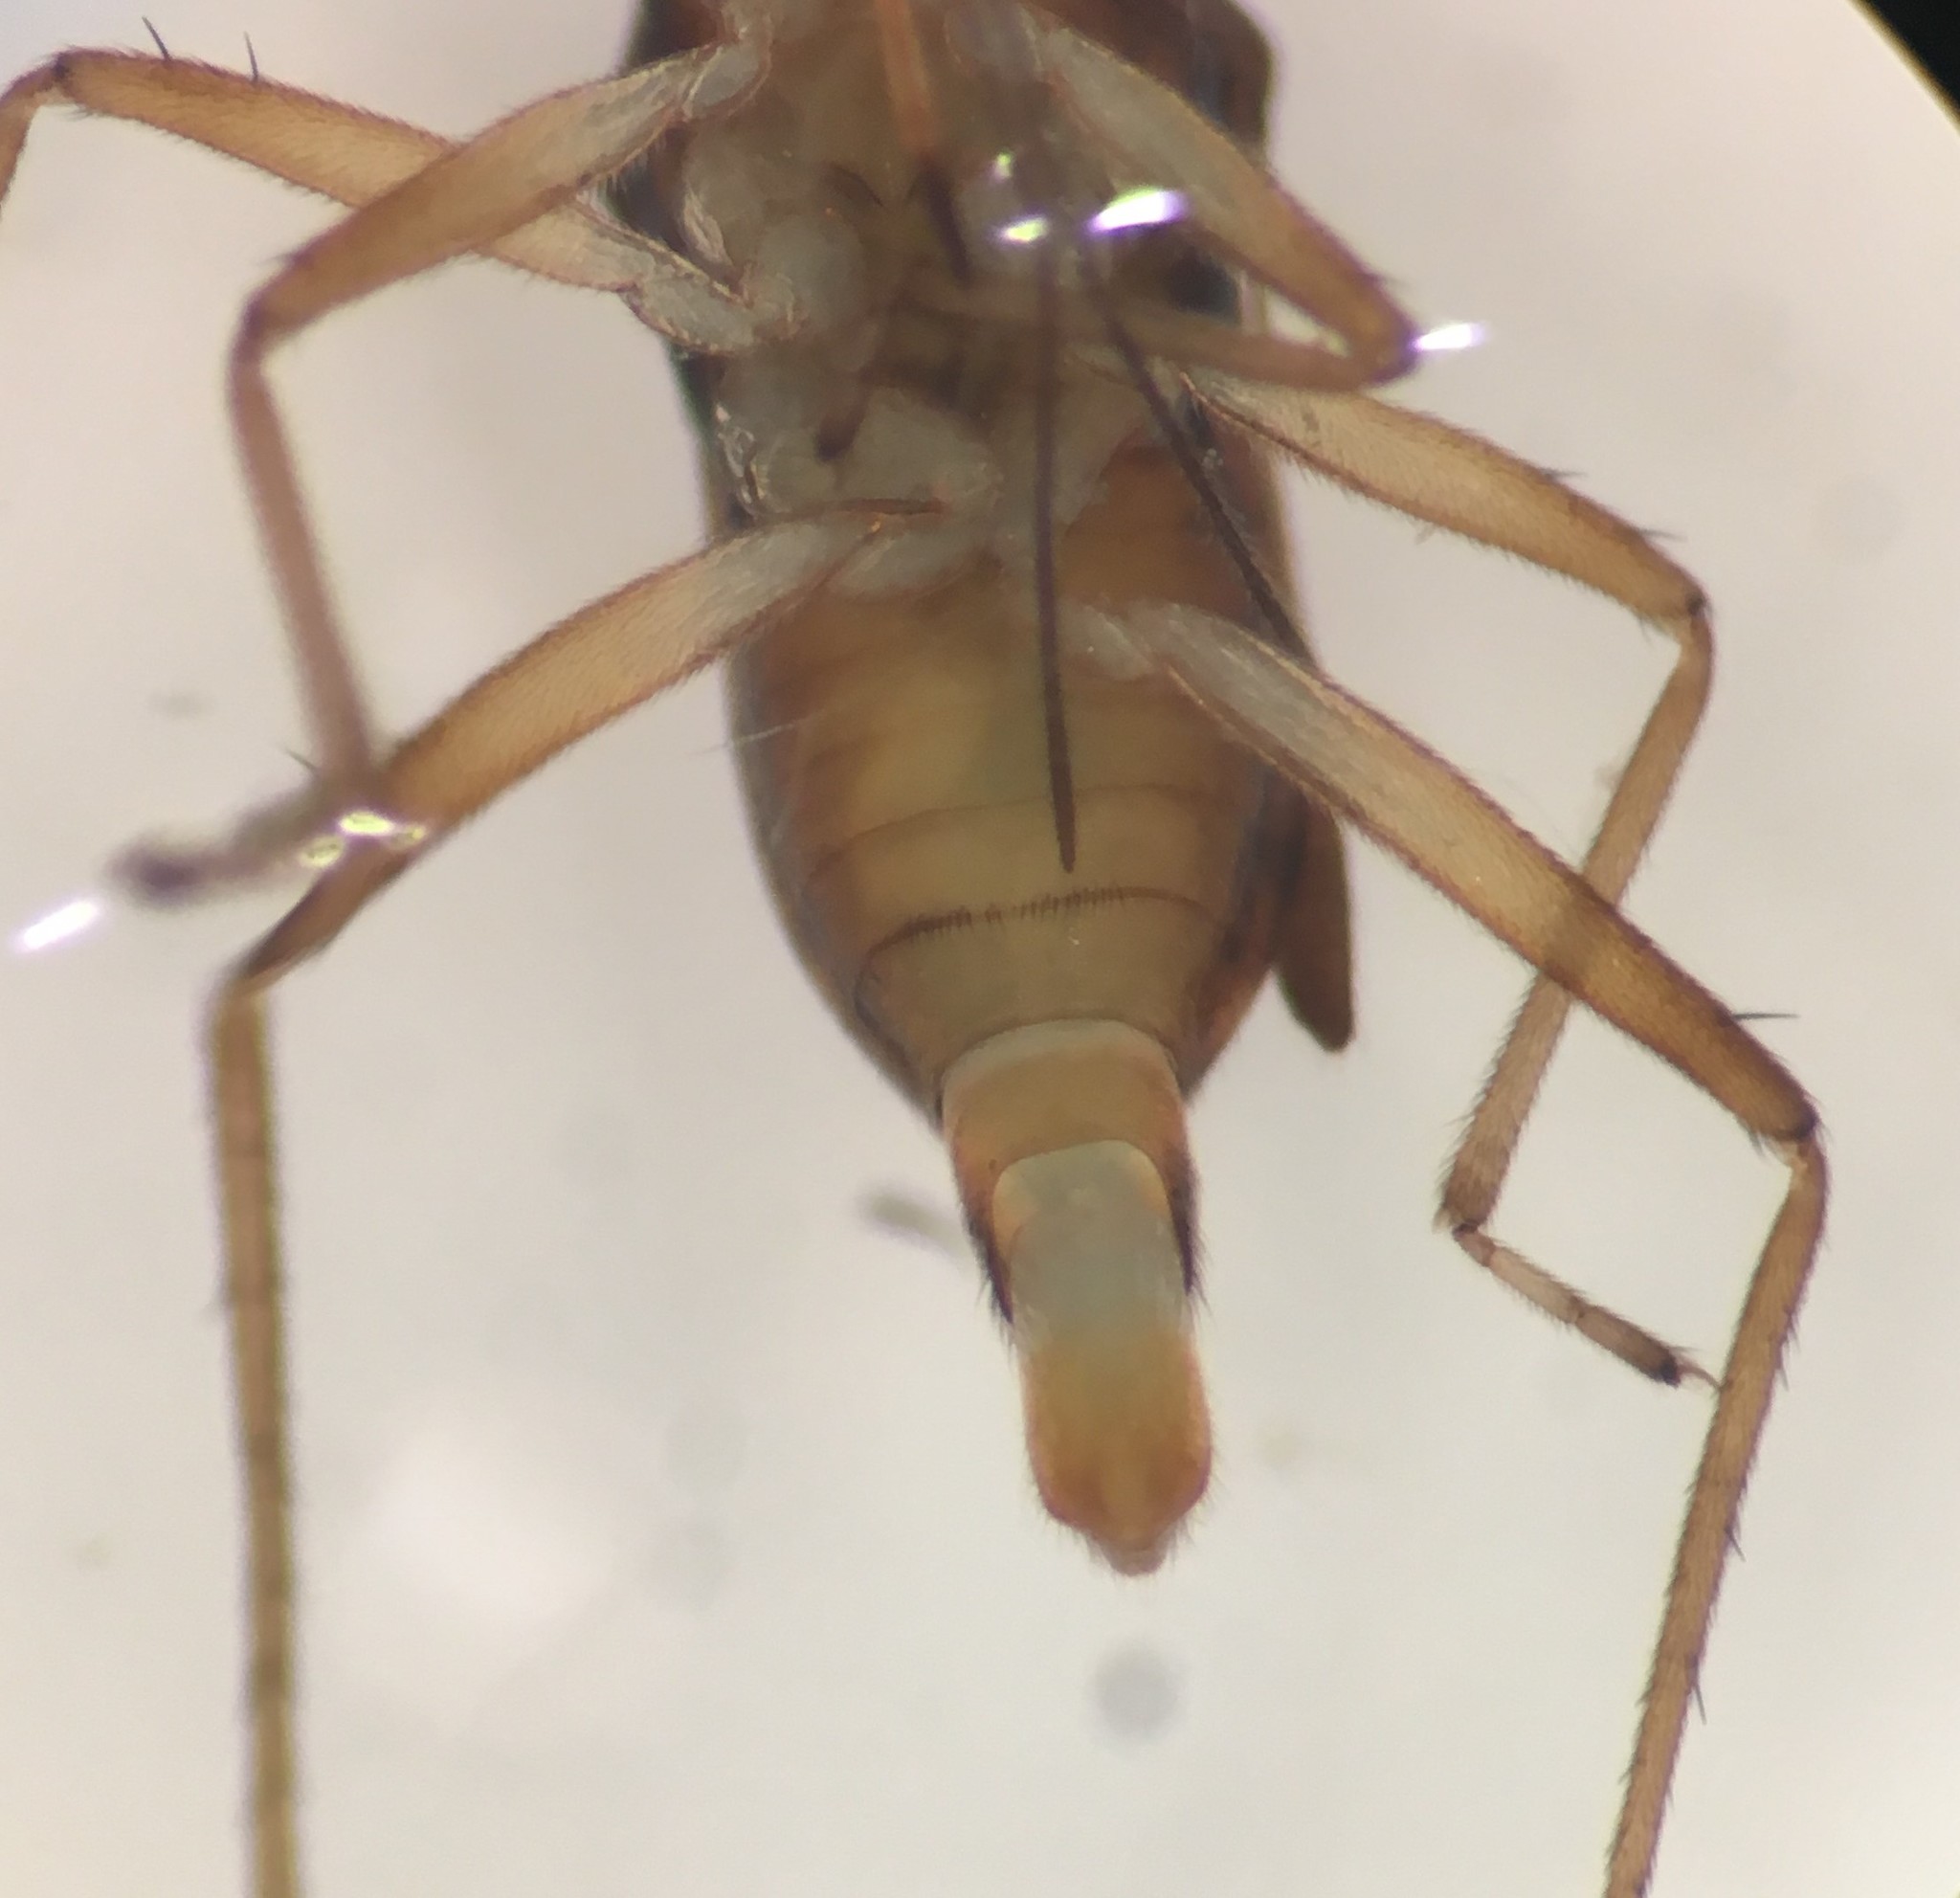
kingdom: Animalia
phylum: Arthropoda
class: Insecta
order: Hemiptera
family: Mesoveliidae
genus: Mesovelia
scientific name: Mesovelia amoena
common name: Water treaders
